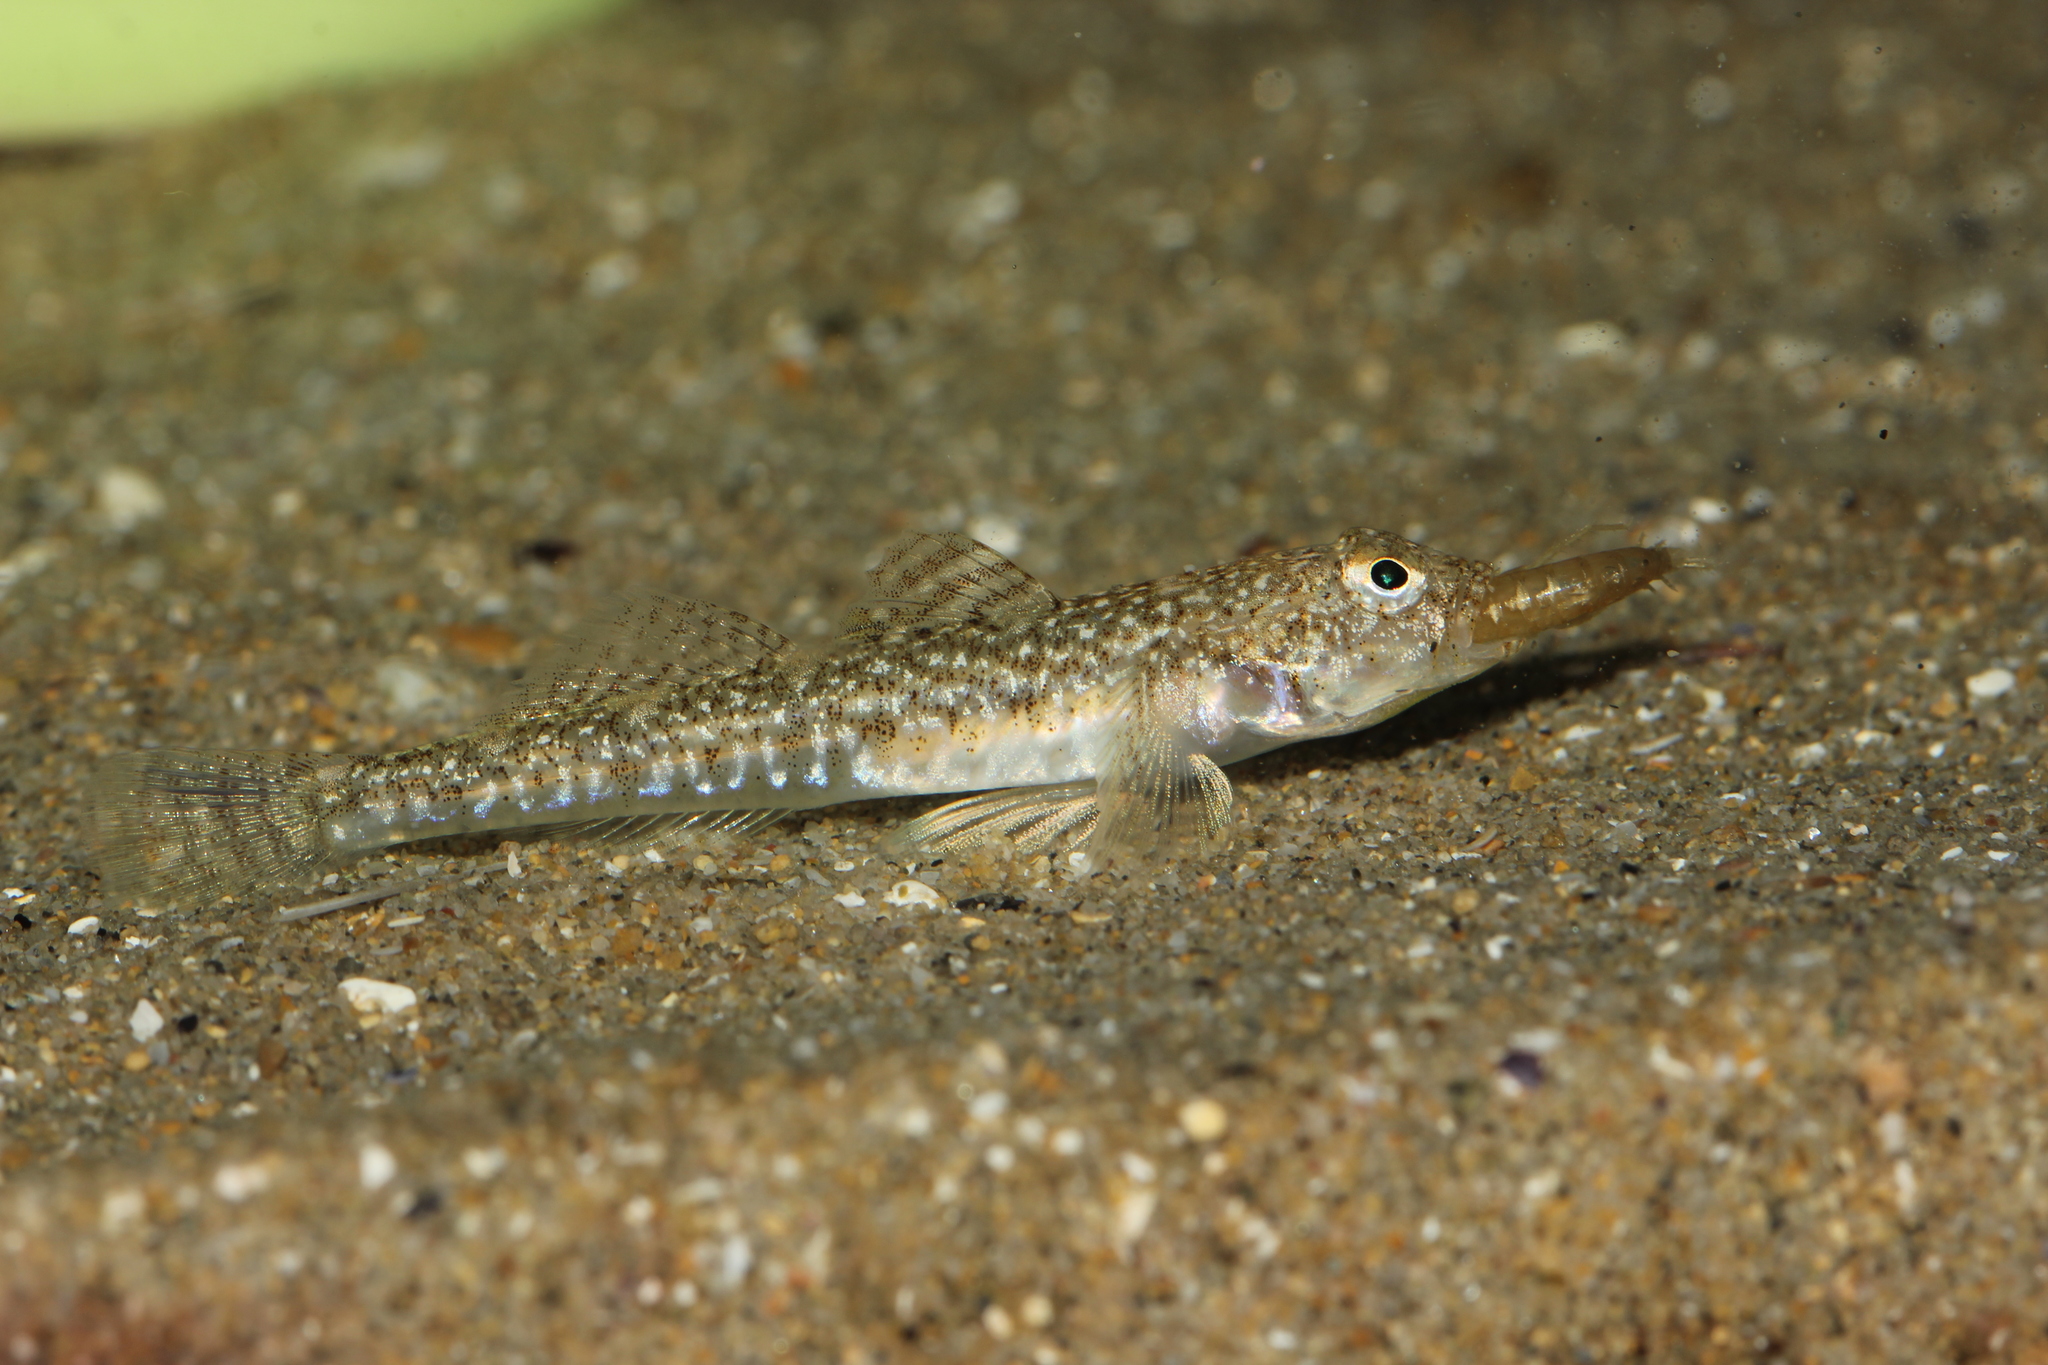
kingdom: Animalia
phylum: Chordata
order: Perciformes
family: Gobiidae
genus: Pomatoschistus
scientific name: Pomatoschistus marmoratus
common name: Marbled goby
